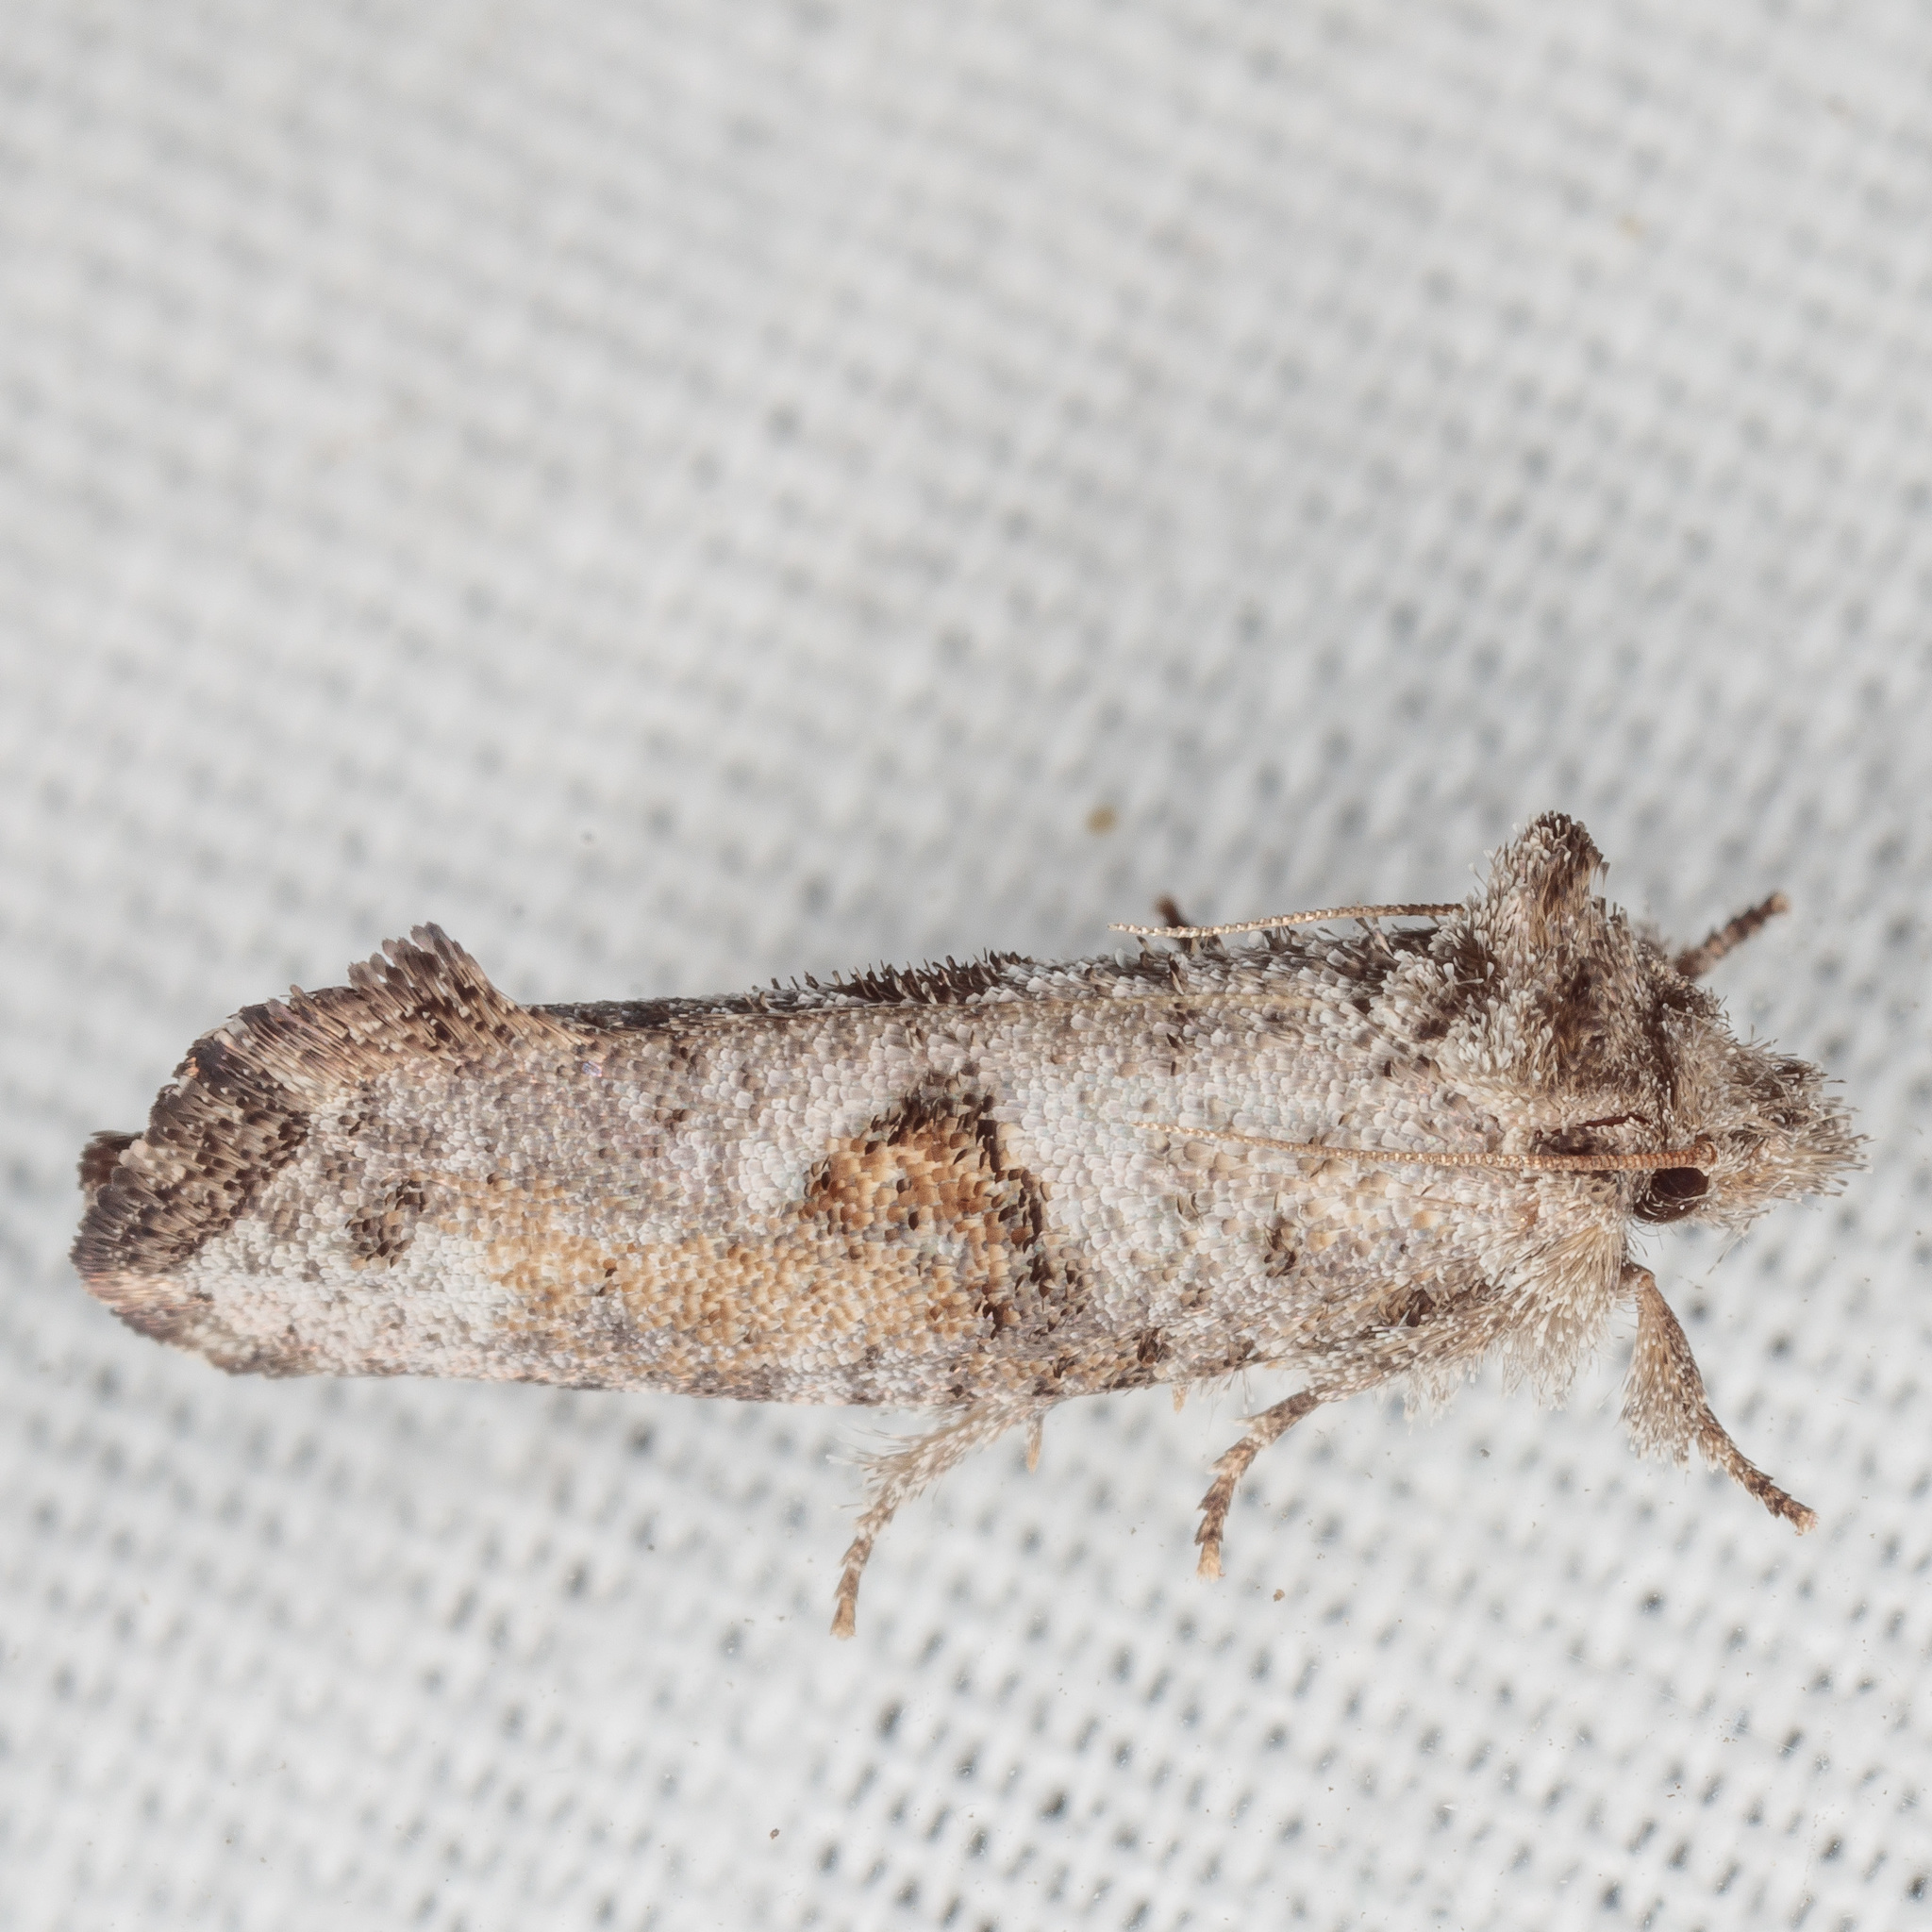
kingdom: Animalia
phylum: Arthropoda
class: Insecta
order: Lepidoptera
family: Tineidae
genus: Acrolophus
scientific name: Acrolophus piger
